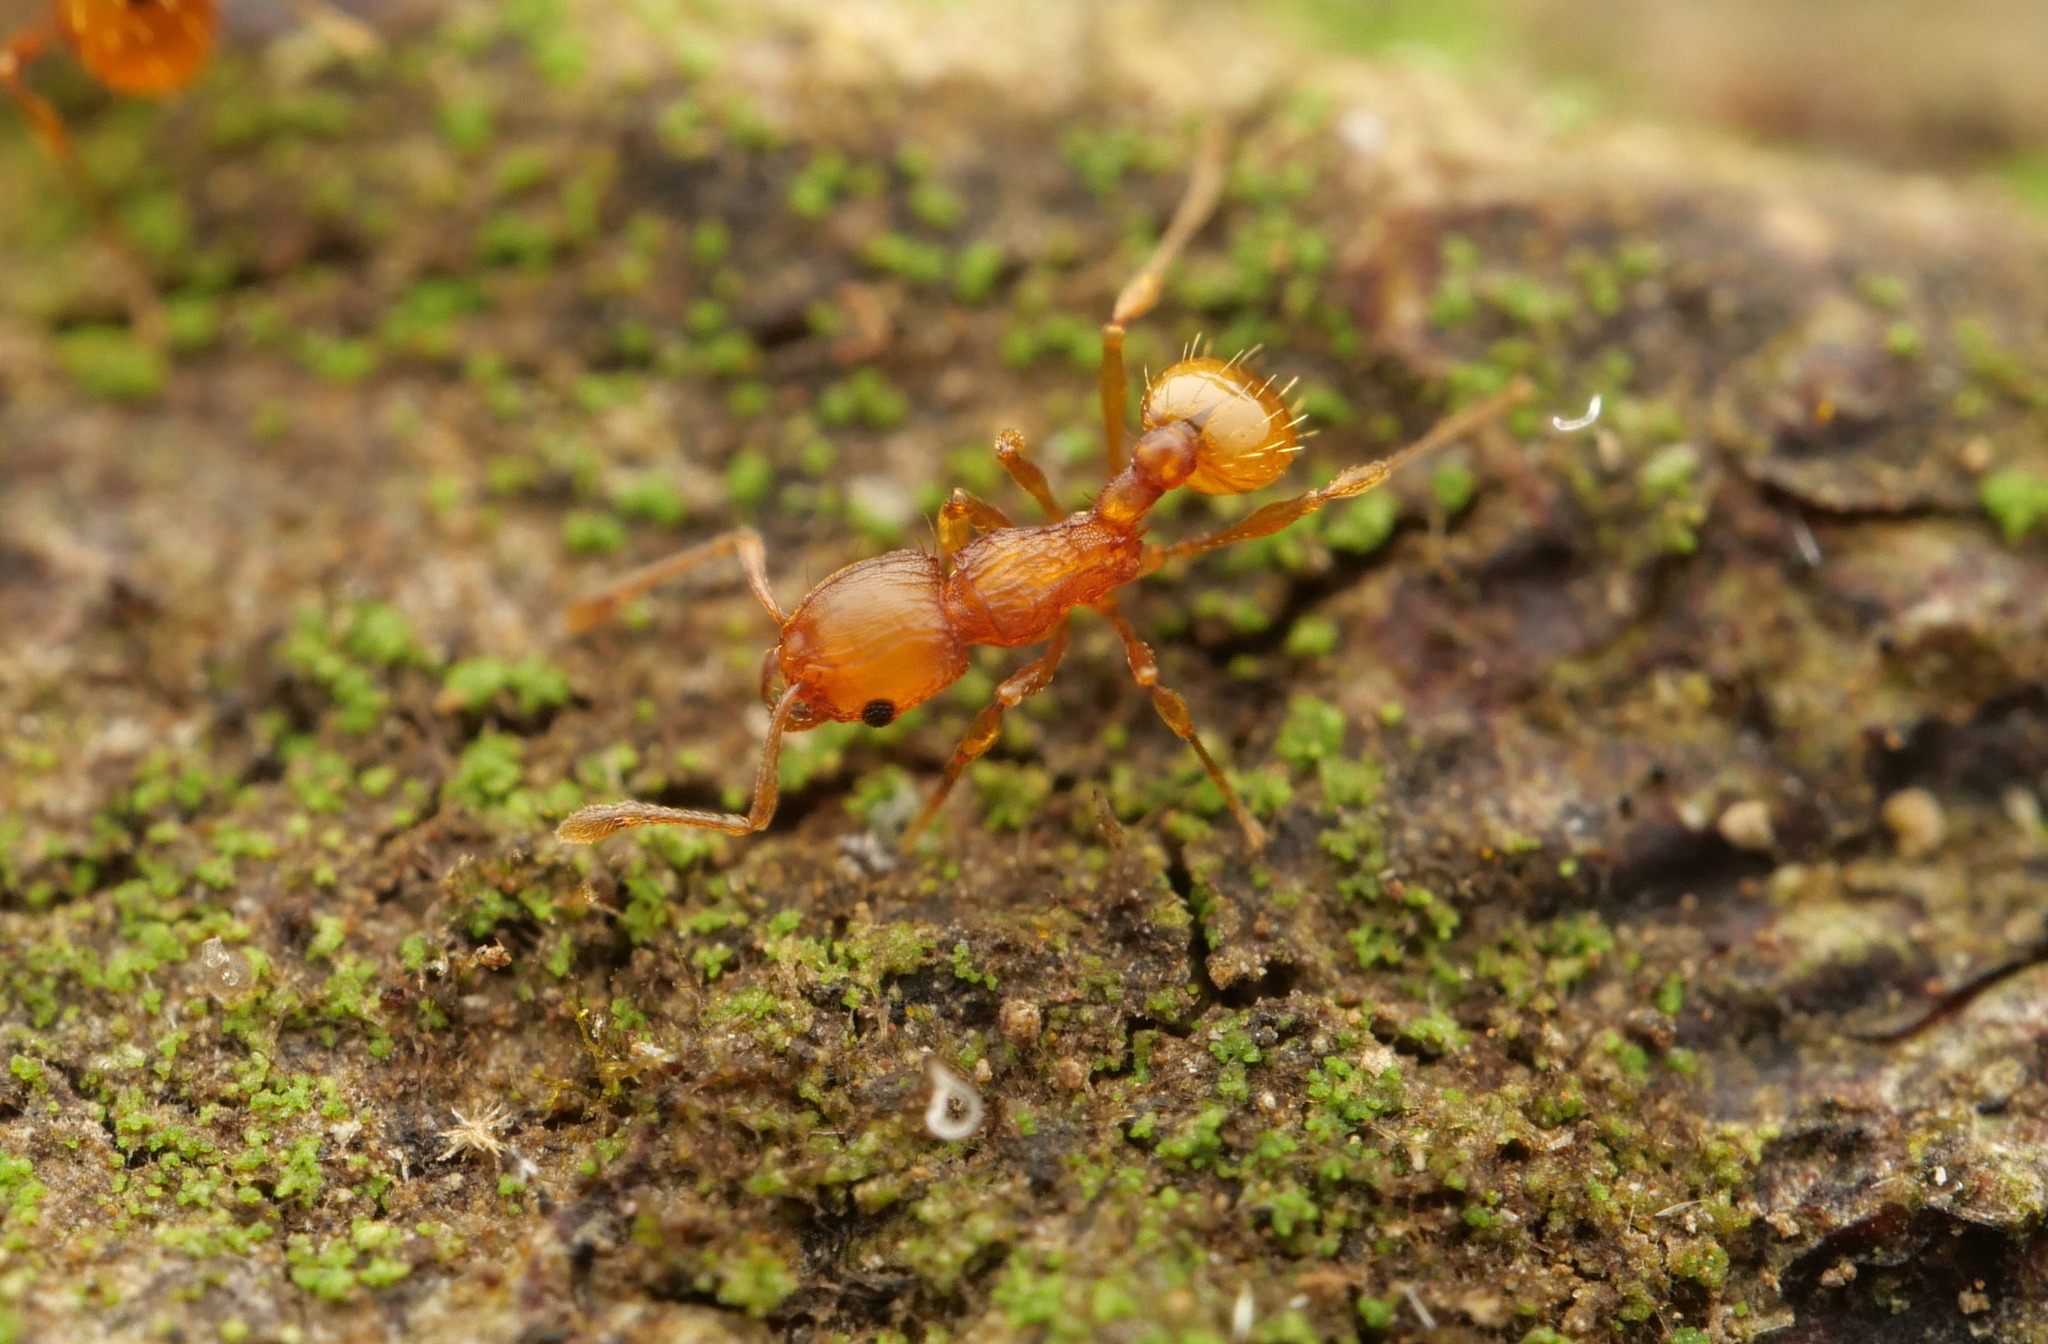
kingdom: Animalia
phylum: Arthropoda
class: Insecta
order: Hymenoptera
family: Formicidae
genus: Wasmannia
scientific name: Wasmannia auropunctata
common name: Little fire ant
